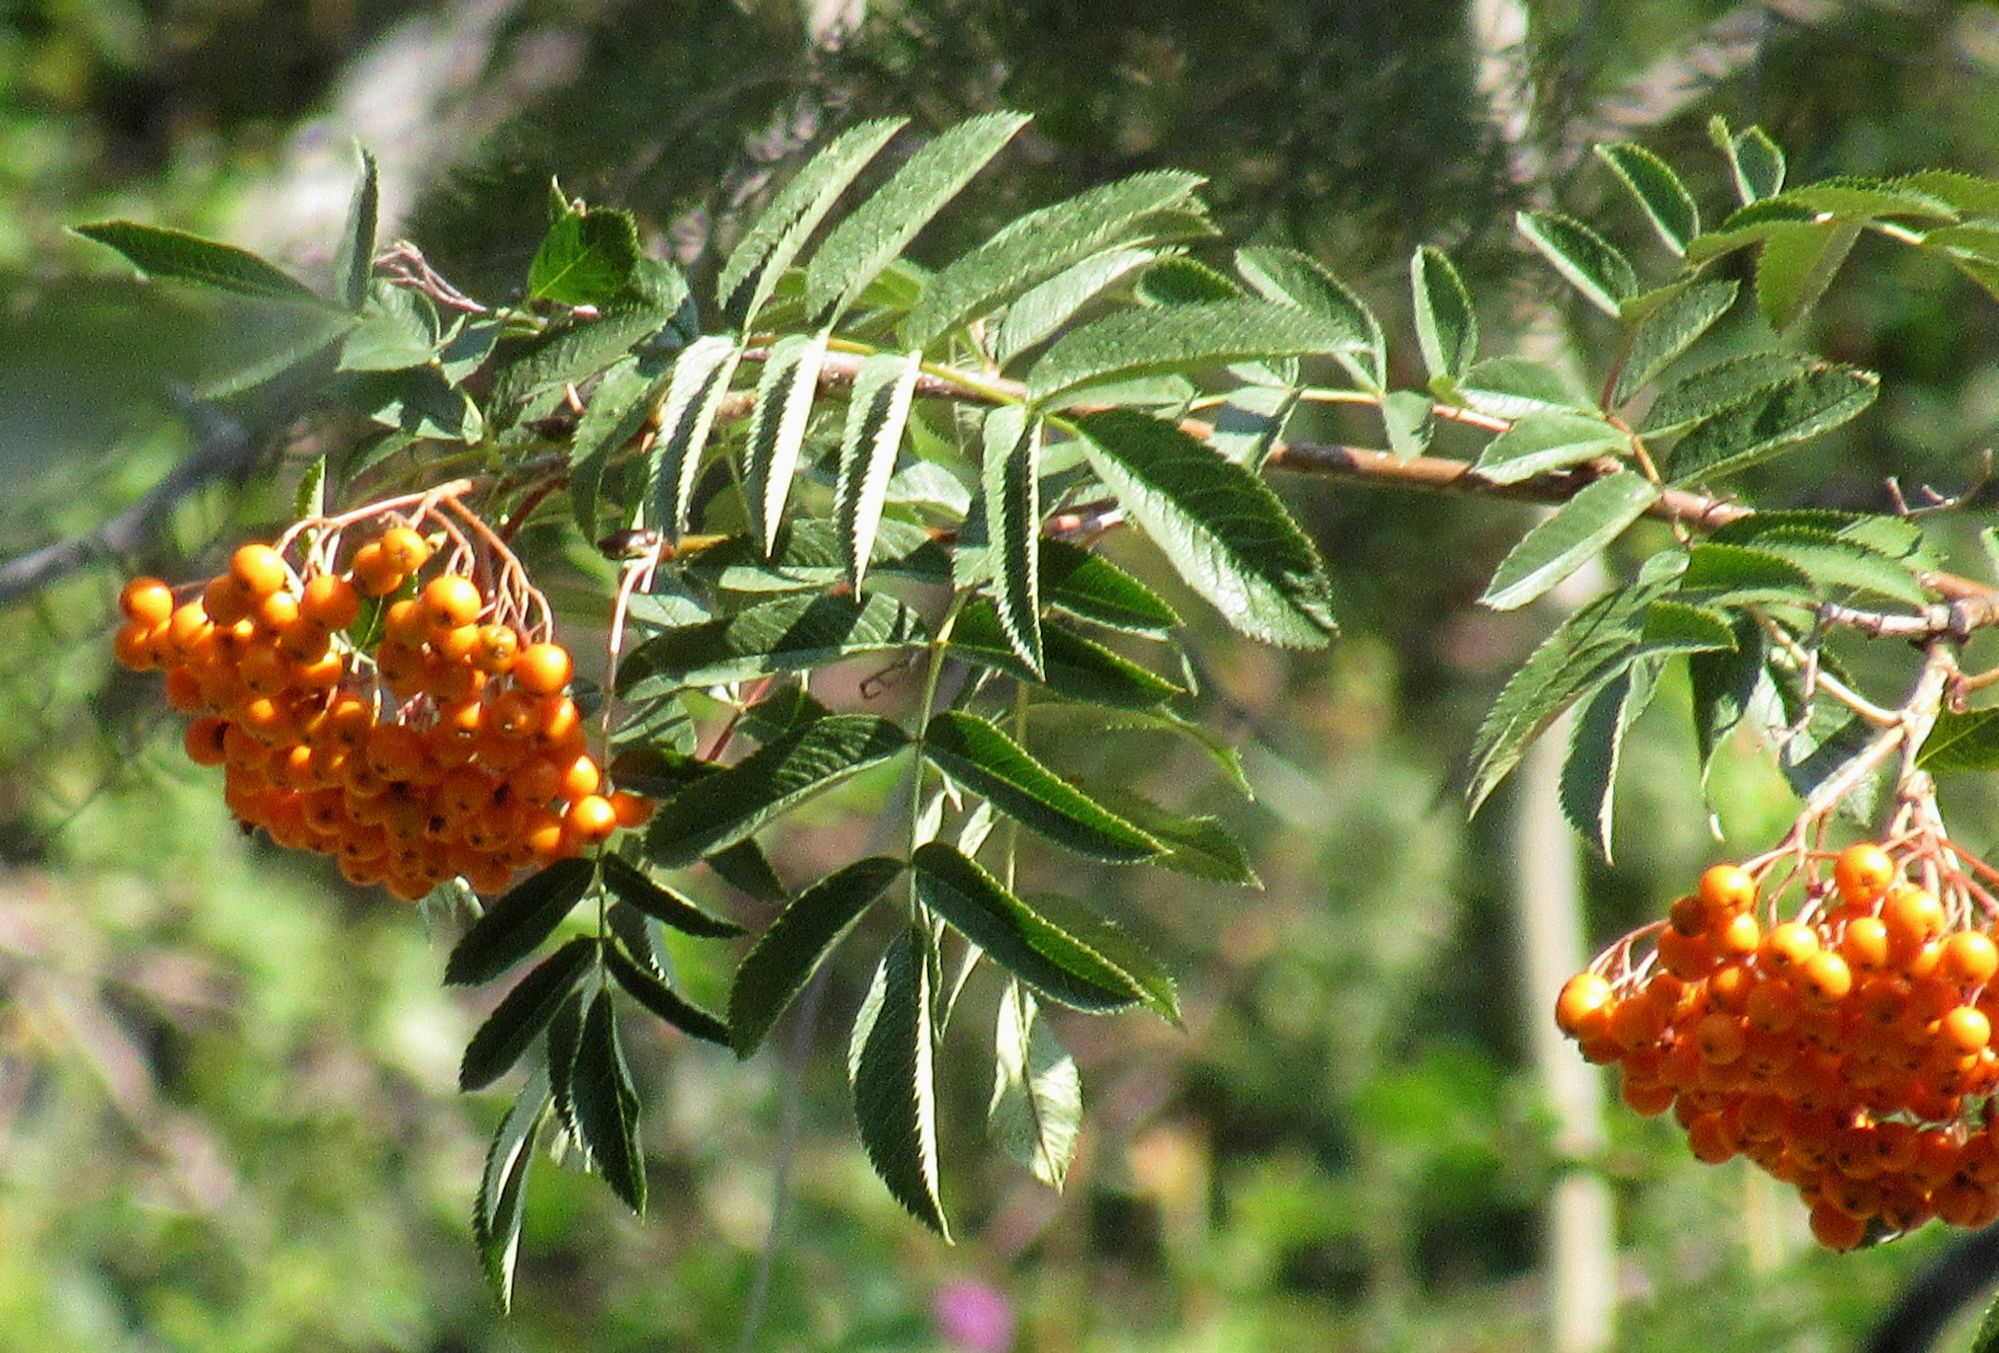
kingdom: Plantae
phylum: Tracheophyta
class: Magnoliopsida
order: Rosales
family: Rosaceae
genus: Sorbus
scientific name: Sorbus scopulina
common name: Greene's mountain-ash
